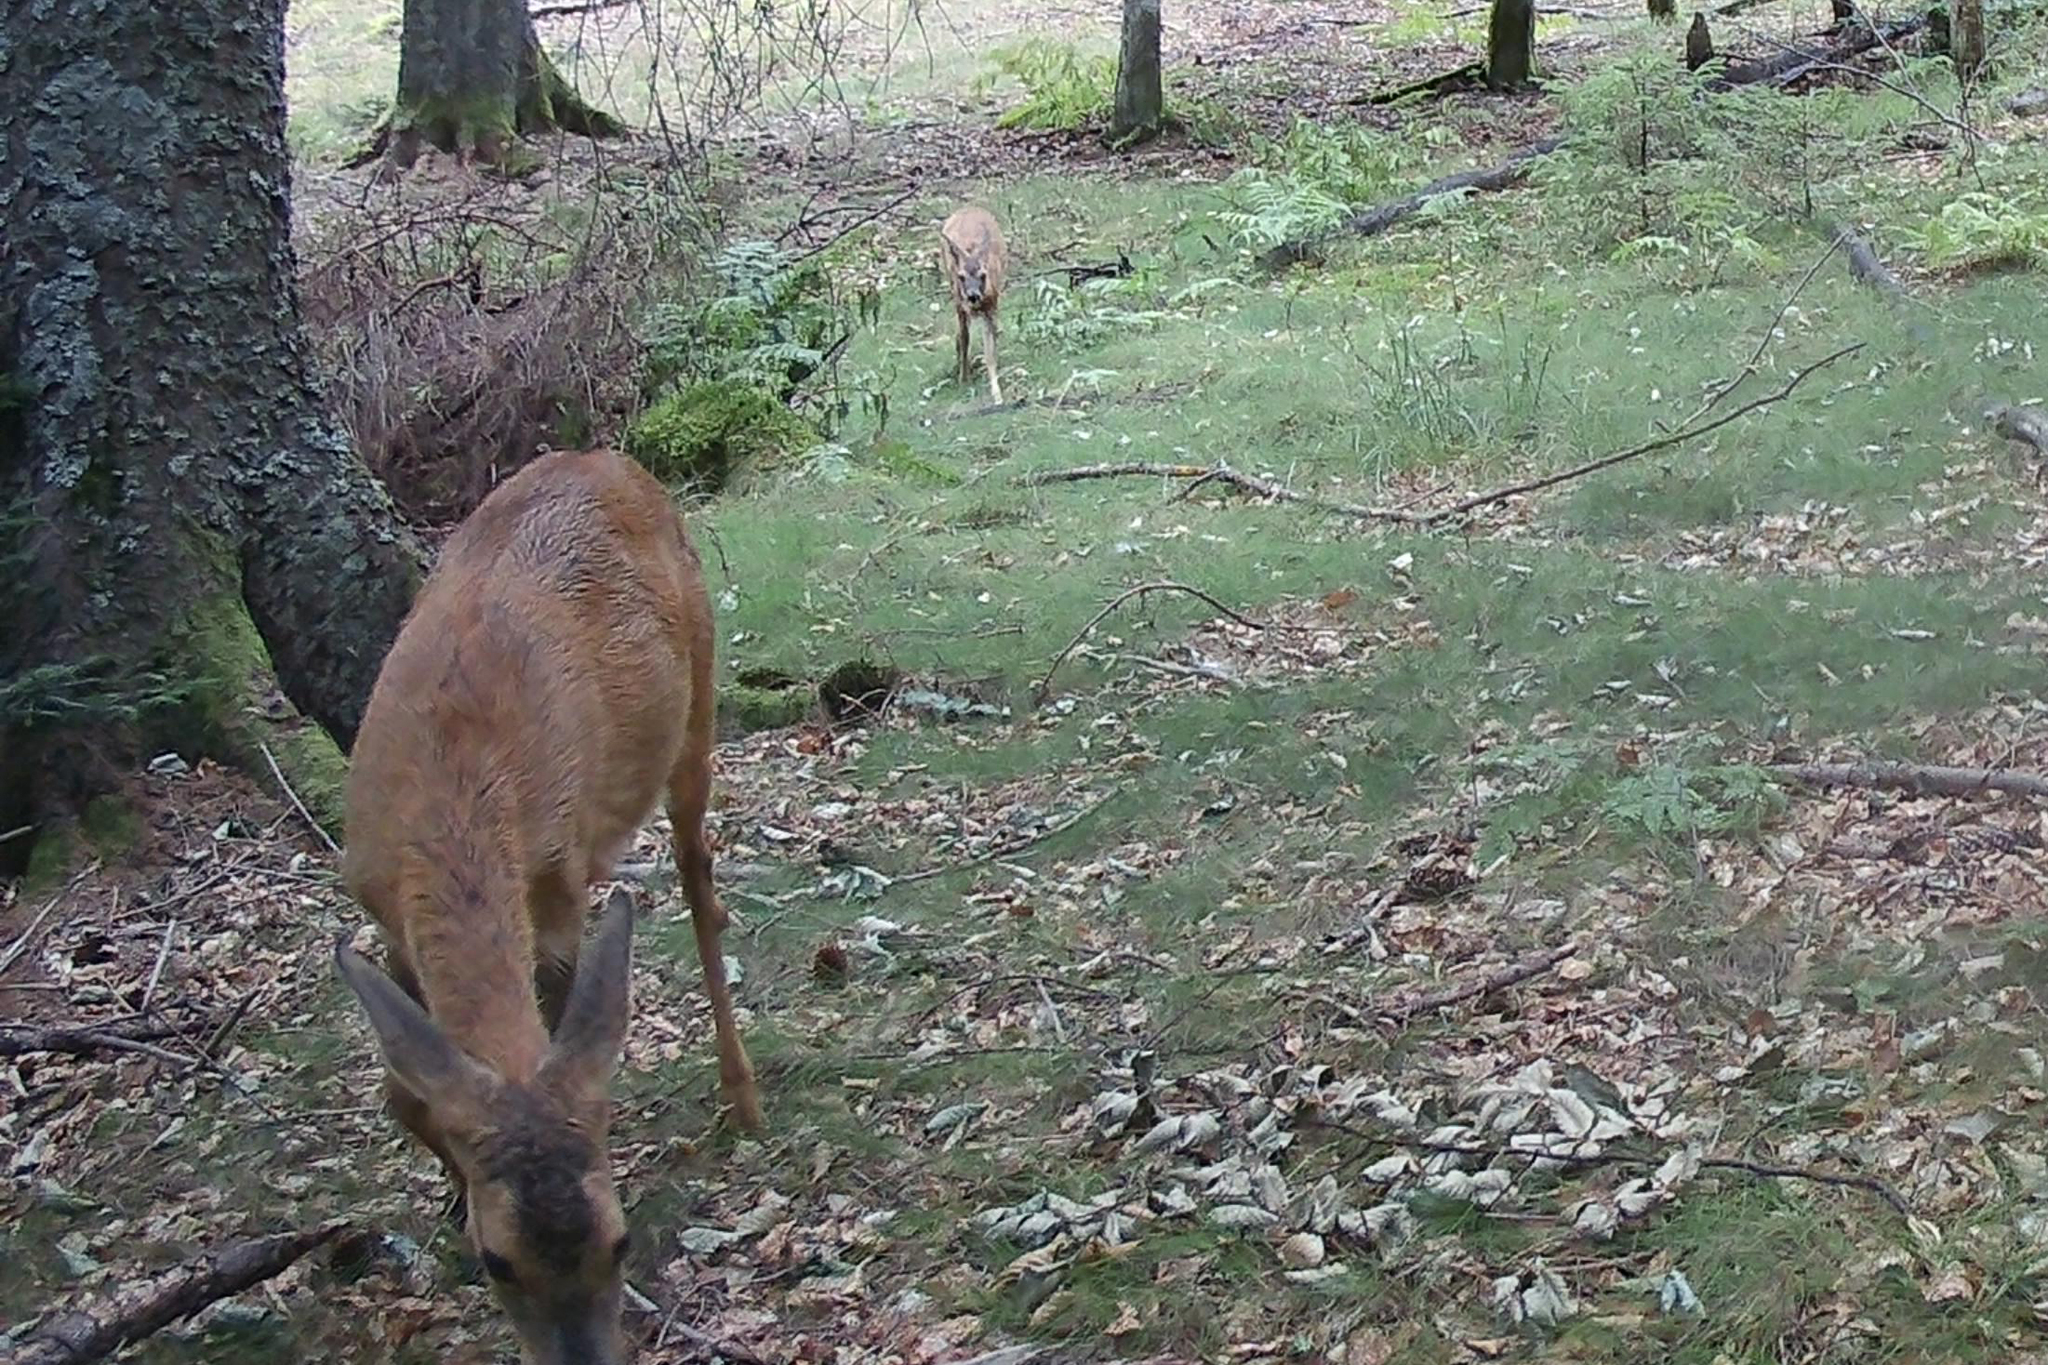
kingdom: Animalia
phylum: Chordata
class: Mammalia
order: Artiodactyla
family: Cervidae
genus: Capreolus
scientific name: Capreolus capreolus
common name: Western roe deer
